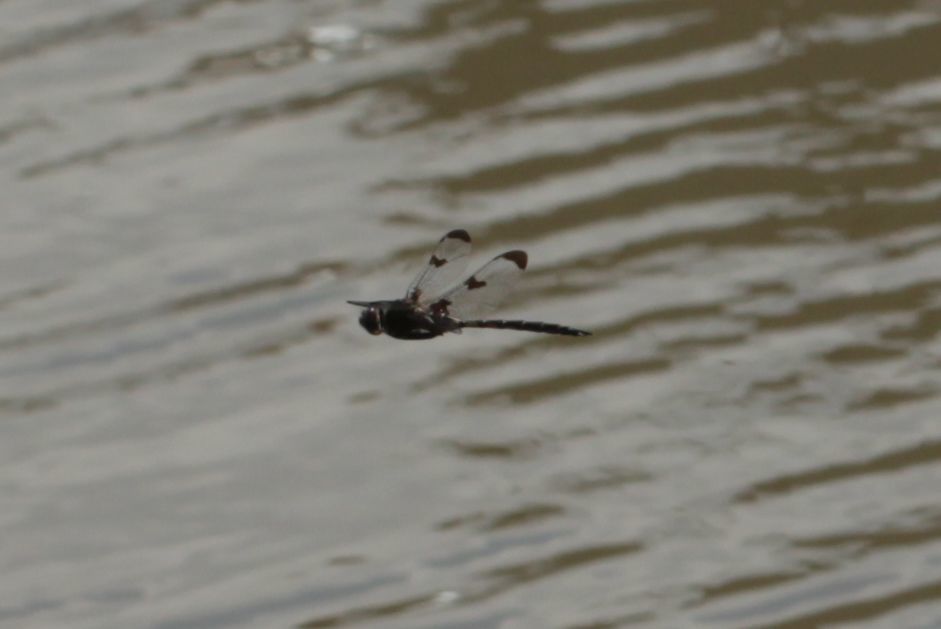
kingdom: Animalia
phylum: Arthropoda
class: Insecta
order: Odonata
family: Corduliidae
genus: Epitheca
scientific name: Epitheca princeps
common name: Prince baskettail
